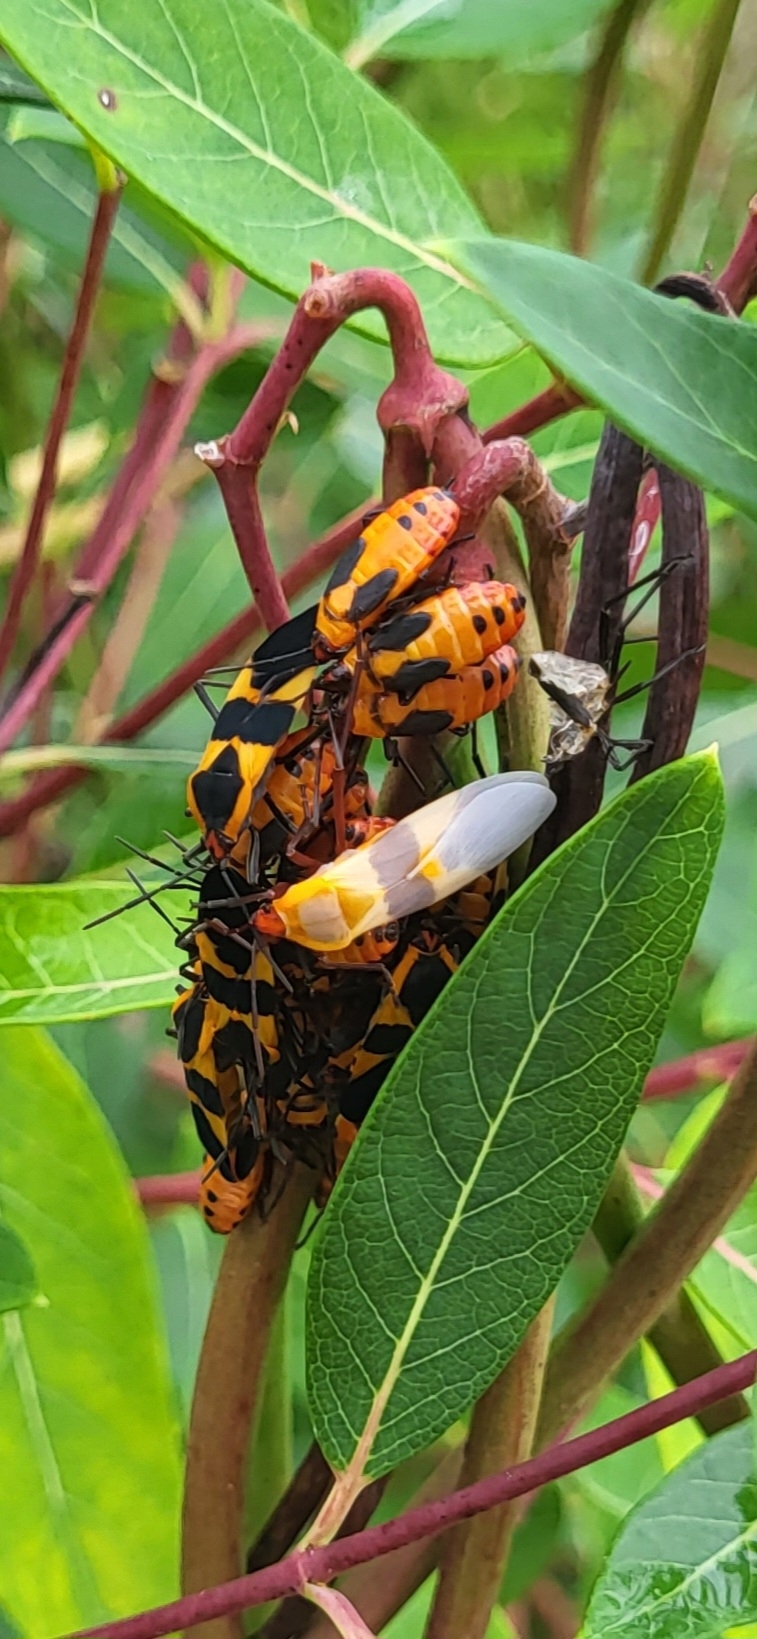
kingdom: Animalia
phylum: Arthropoda
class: Insecta
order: Hemiptera
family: Lygaeidae
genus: Oncopeltus
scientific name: Oncopeltus fasciatus
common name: Large milkweed bug
